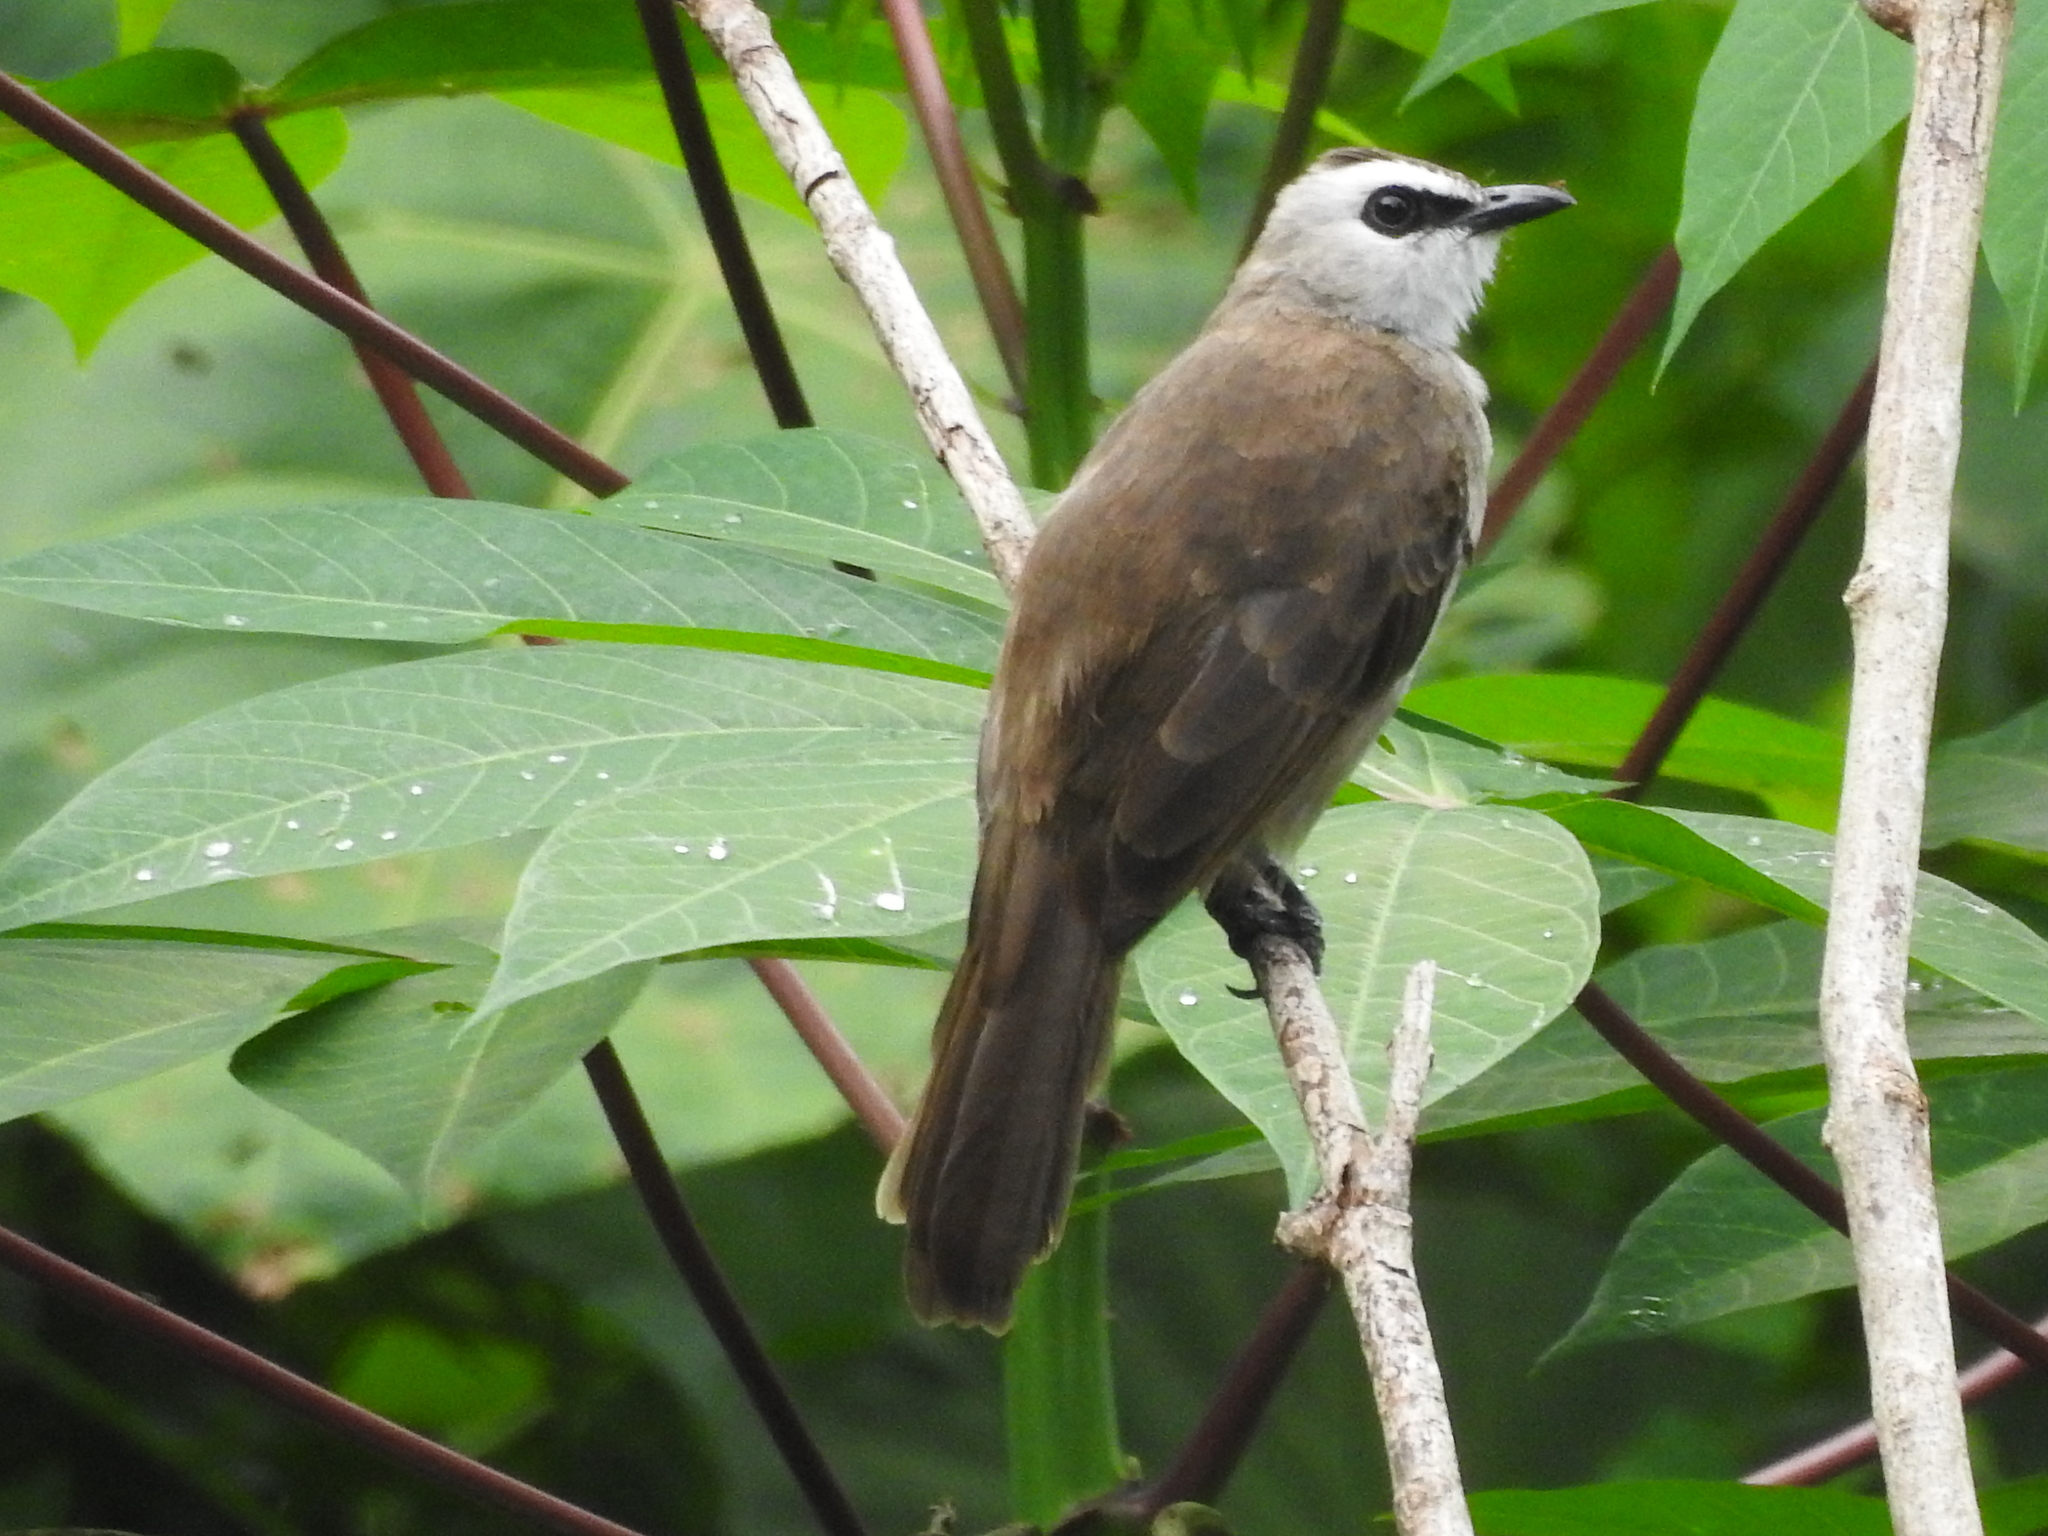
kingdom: Animalia
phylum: Chordata
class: Aves
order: Passeriformes
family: Pycnonotidae
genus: Pycnonotus
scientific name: Pycnonotus goiavier
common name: Yellow-vented bulbul
